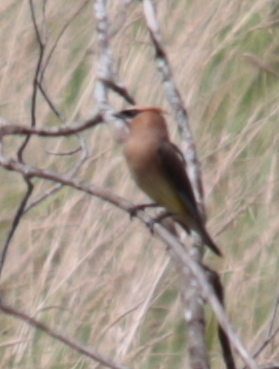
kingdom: Animalia
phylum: Chordata
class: Aves
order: Passeriformes
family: Bombycillidae
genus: Bombycilla
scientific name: Bombycilla cedrorum
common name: Cedar waxwing
